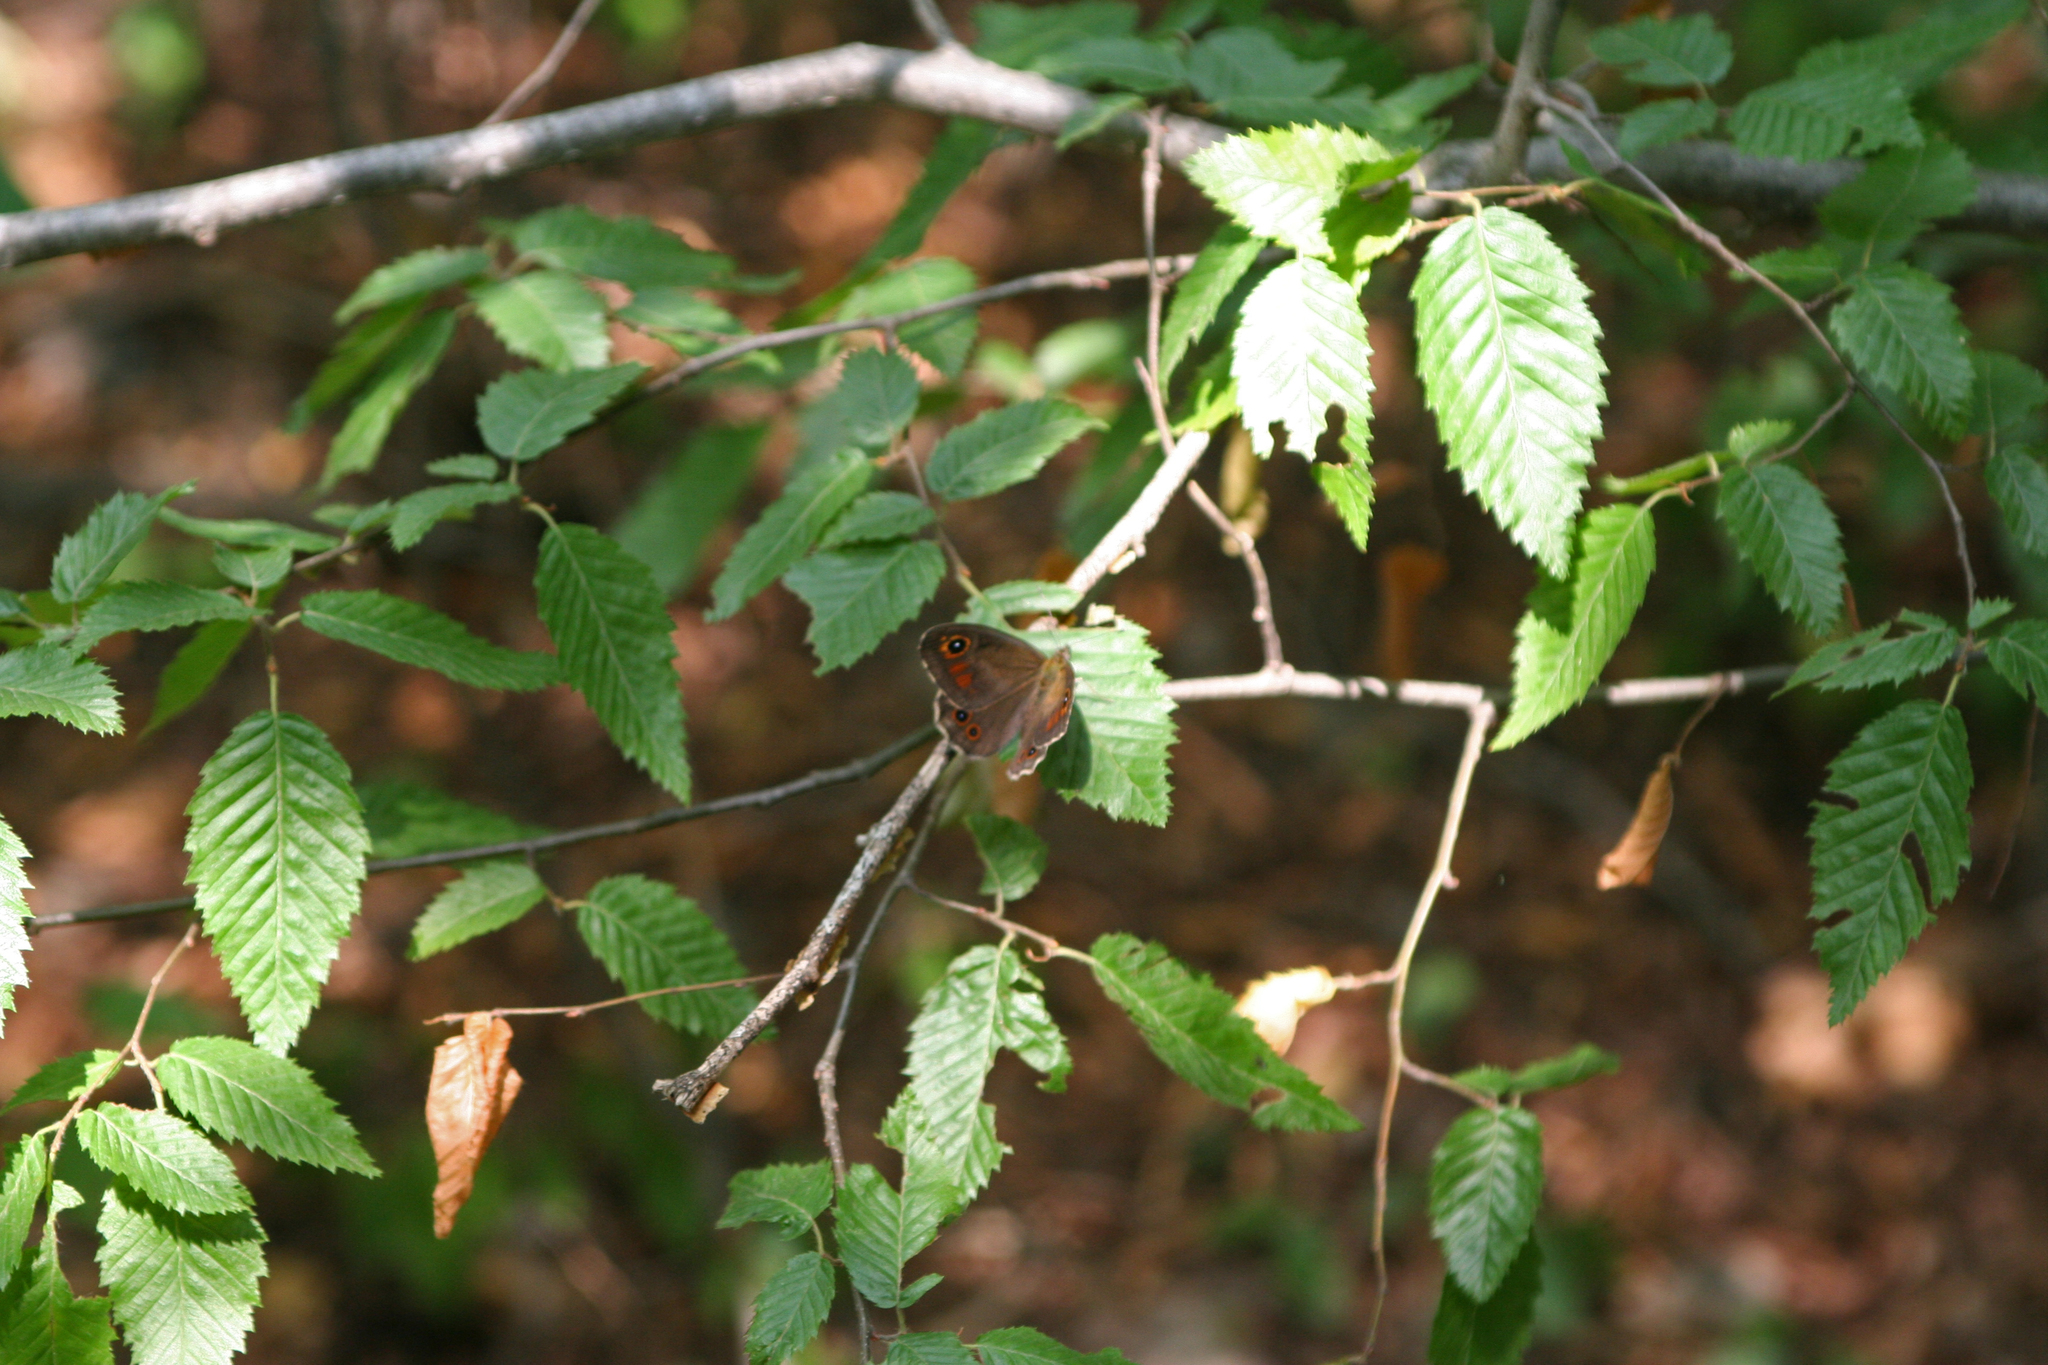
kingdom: Animalia
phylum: Arthropoda
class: Insecta
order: Lepidoptera
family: Nymphalidae
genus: Pararge
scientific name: Pararge Lasiommata maera
